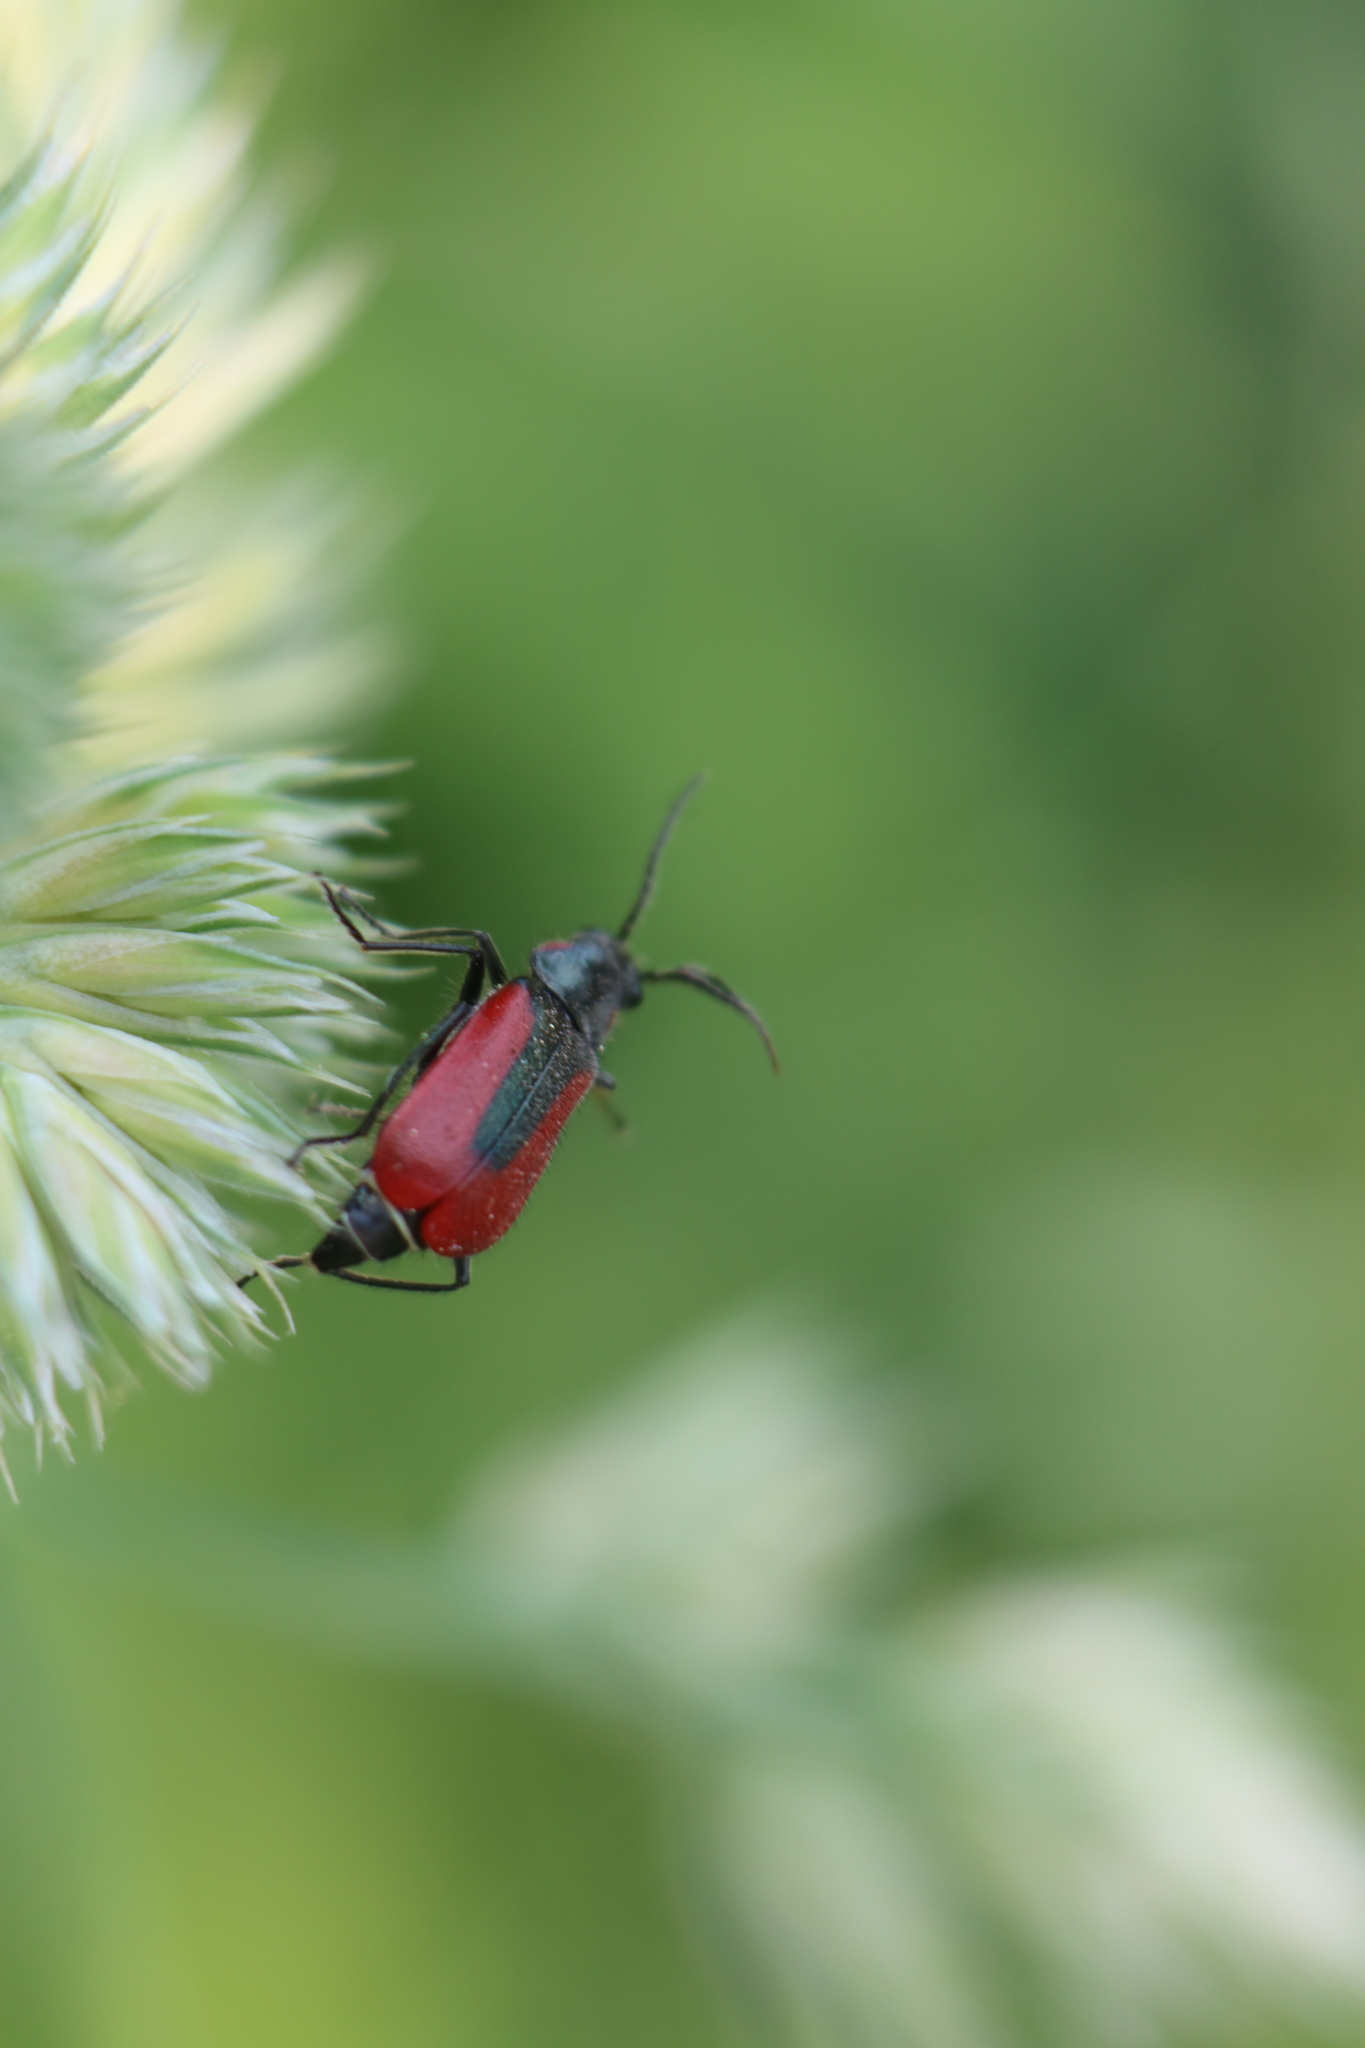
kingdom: Animalia
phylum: Arthropoda
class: Insecta
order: Coleoptera
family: Melyridae
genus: Malachius
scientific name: Malachius aeneus
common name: Scarlet malachite beetle
